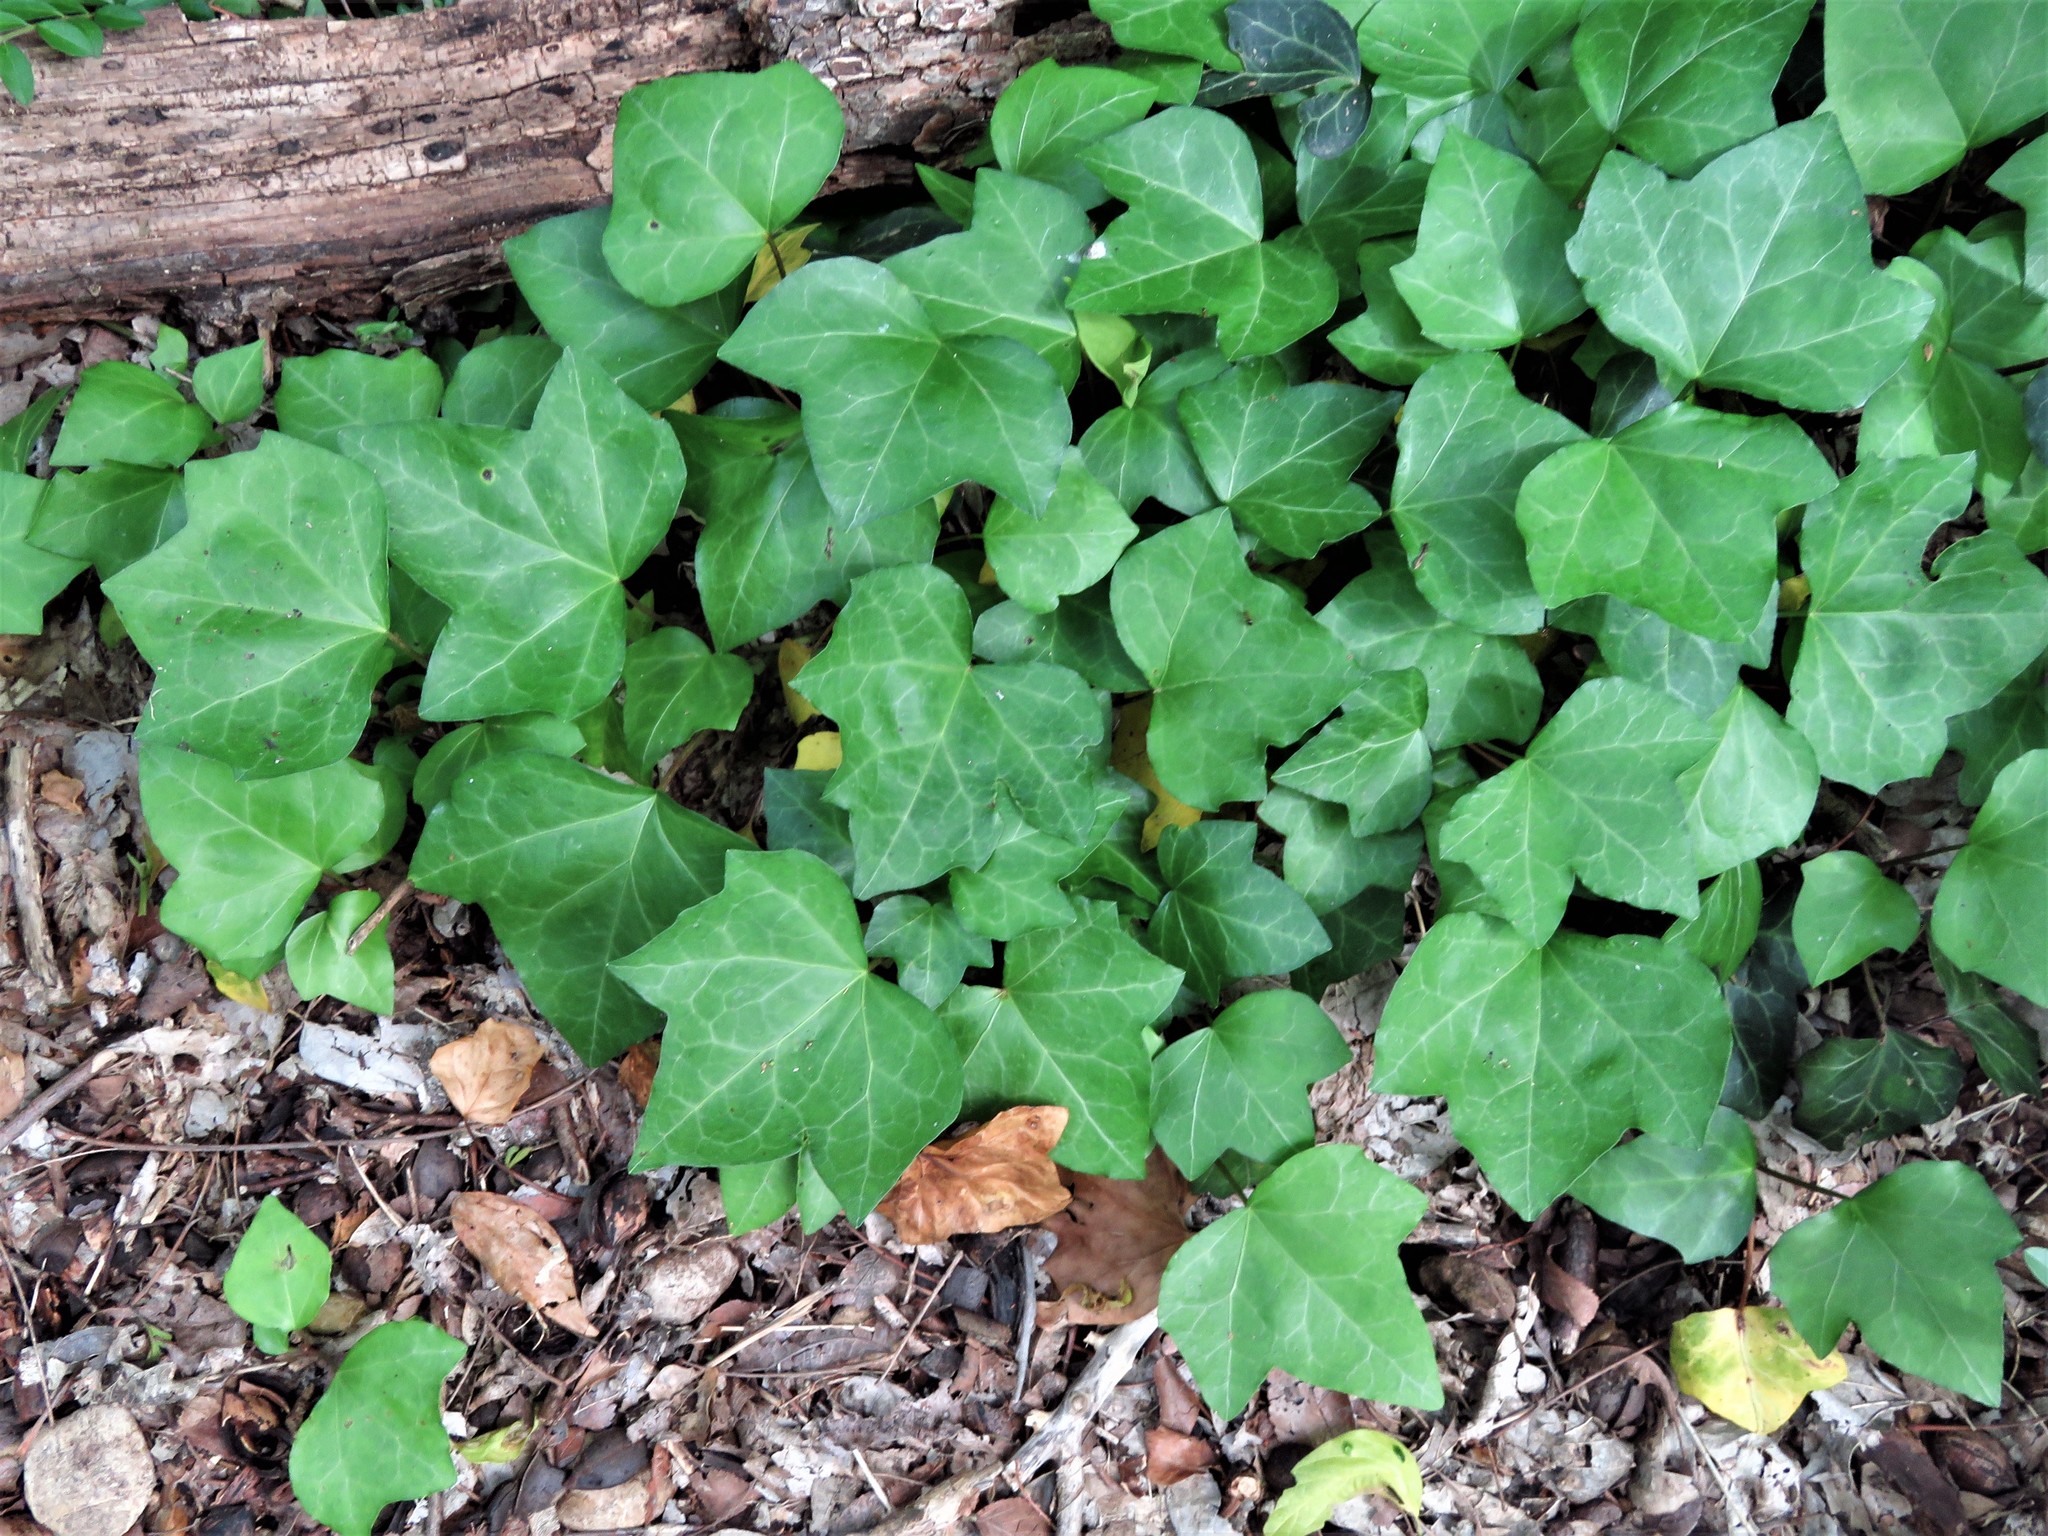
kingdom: Plantae
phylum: Tracheophyta
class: Magnoliopsida
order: Apiales
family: Araliaceae
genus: Hedera
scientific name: Hedera helix
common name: Ivy
